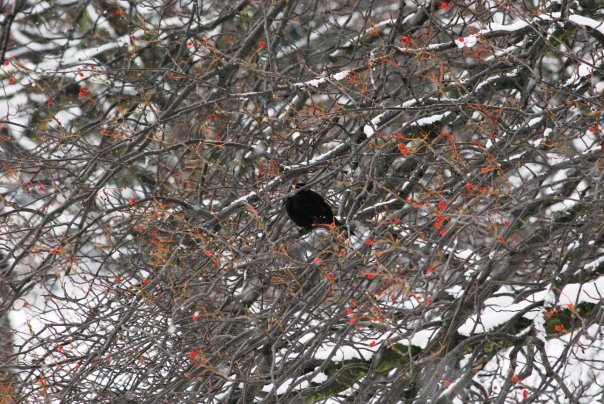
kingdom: Animalia
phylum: Chordata
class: Aves
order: Passeriformes
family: Turdidae
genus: Turdus
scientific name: Turdus merula
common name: Common blackbird
